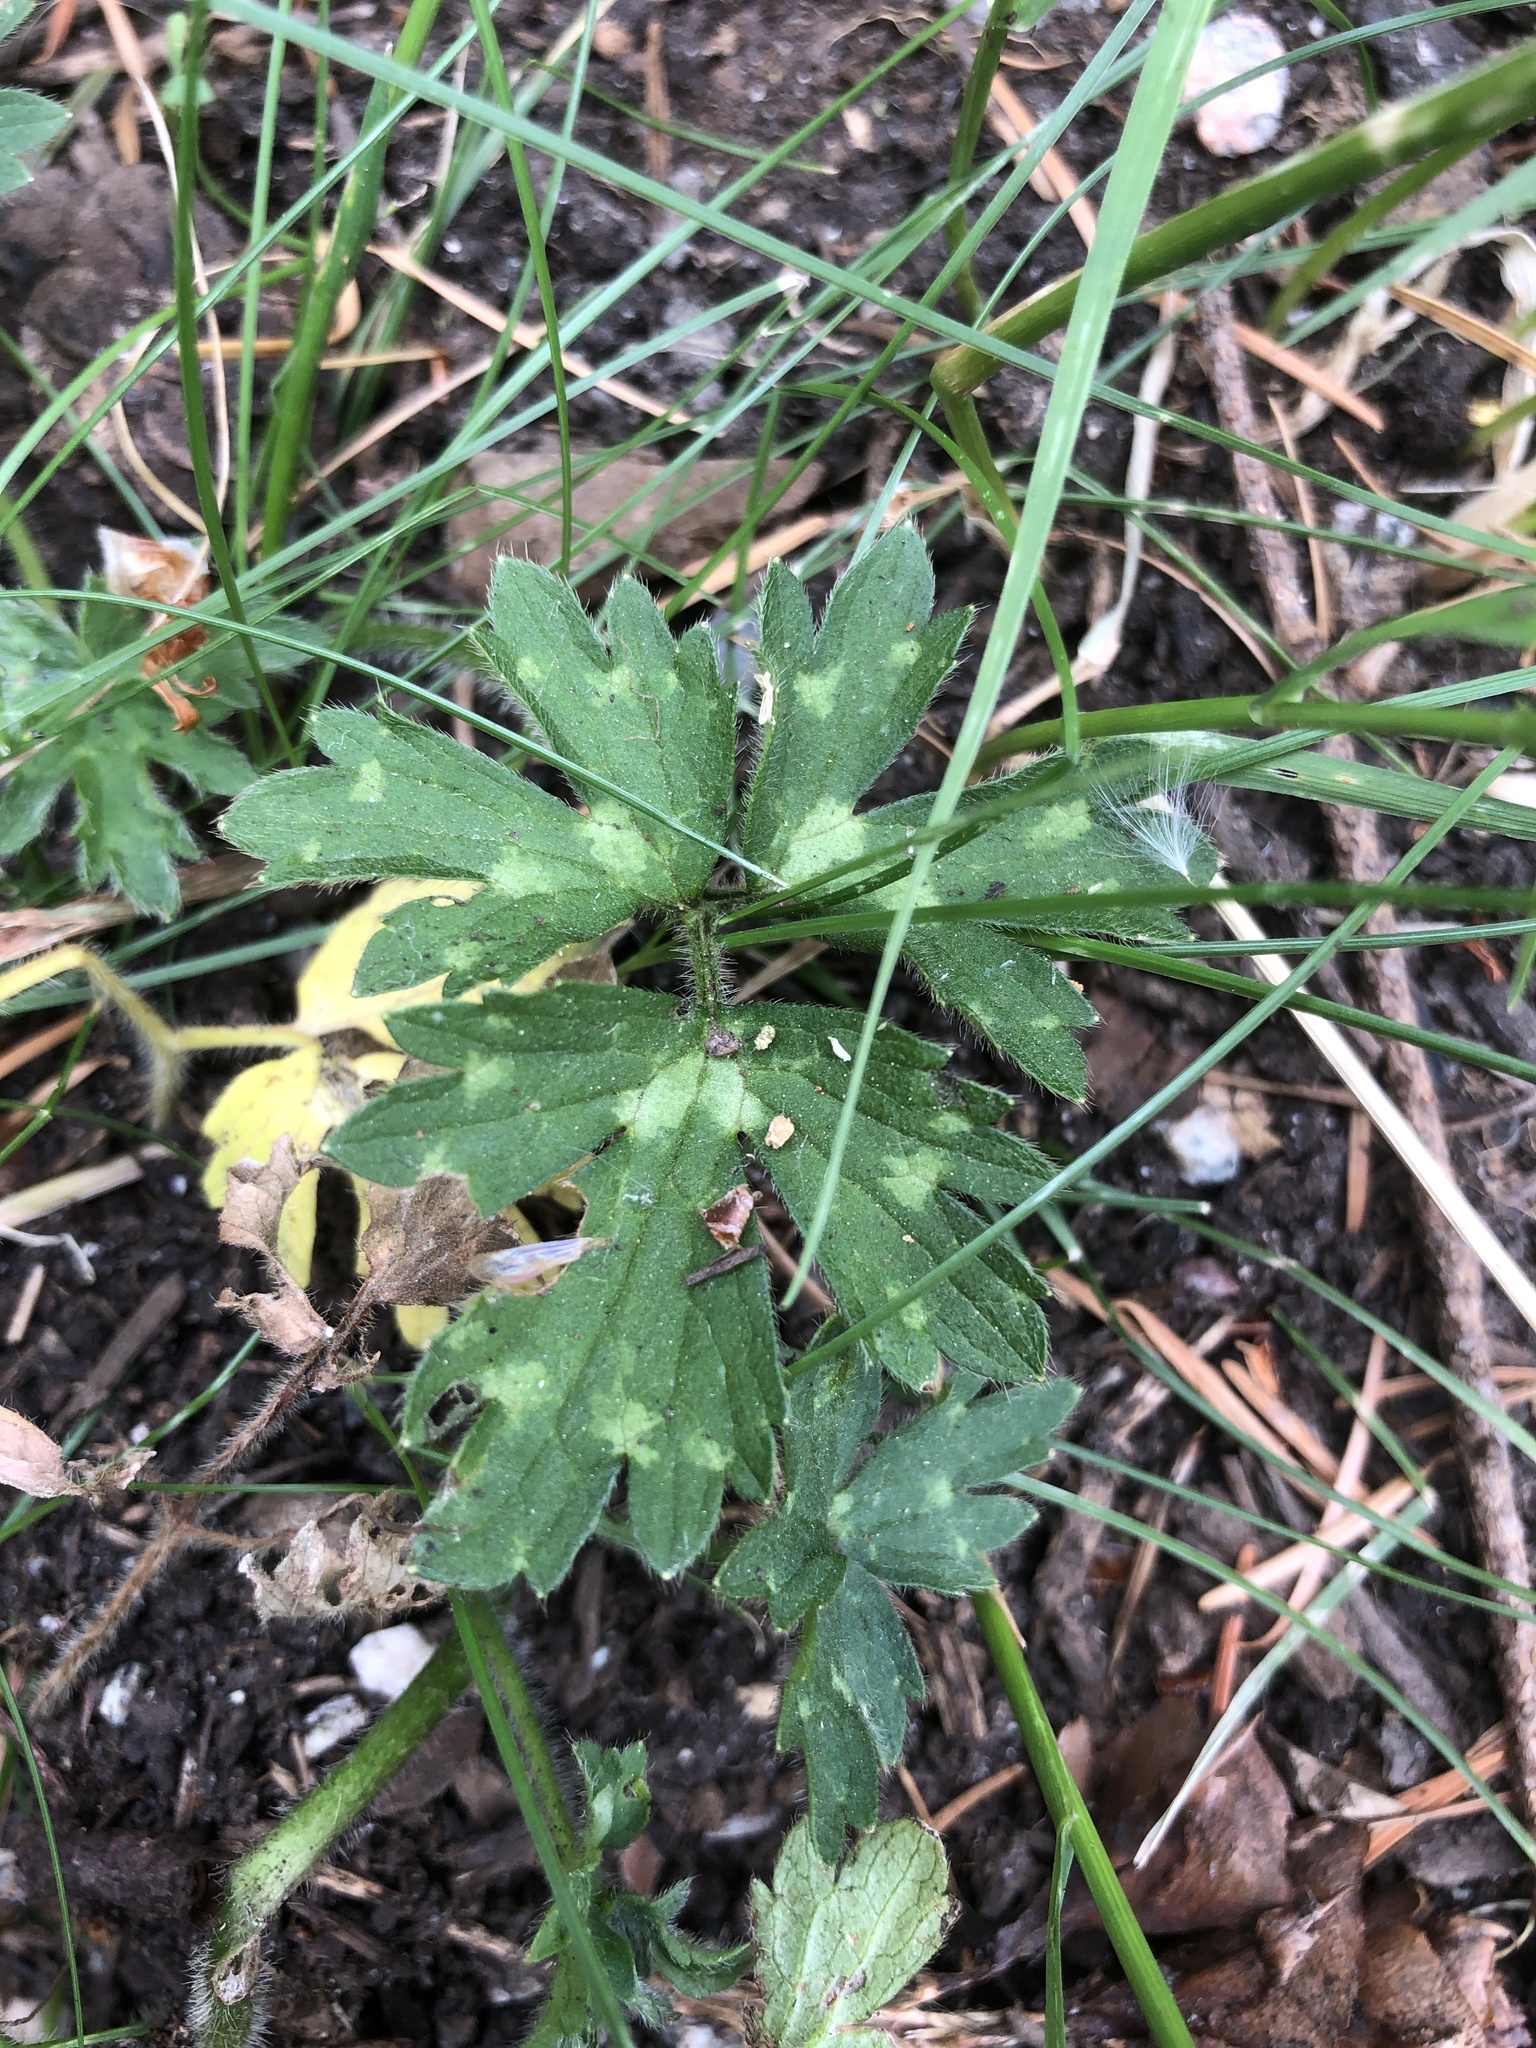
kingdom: Plantae
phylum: Tracheophyta
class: Magnoliopsida
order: Ranunculales
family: Ranunculaceae
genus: Ranunculus
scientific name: Ranunculus repens
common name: Creeping buttercup
